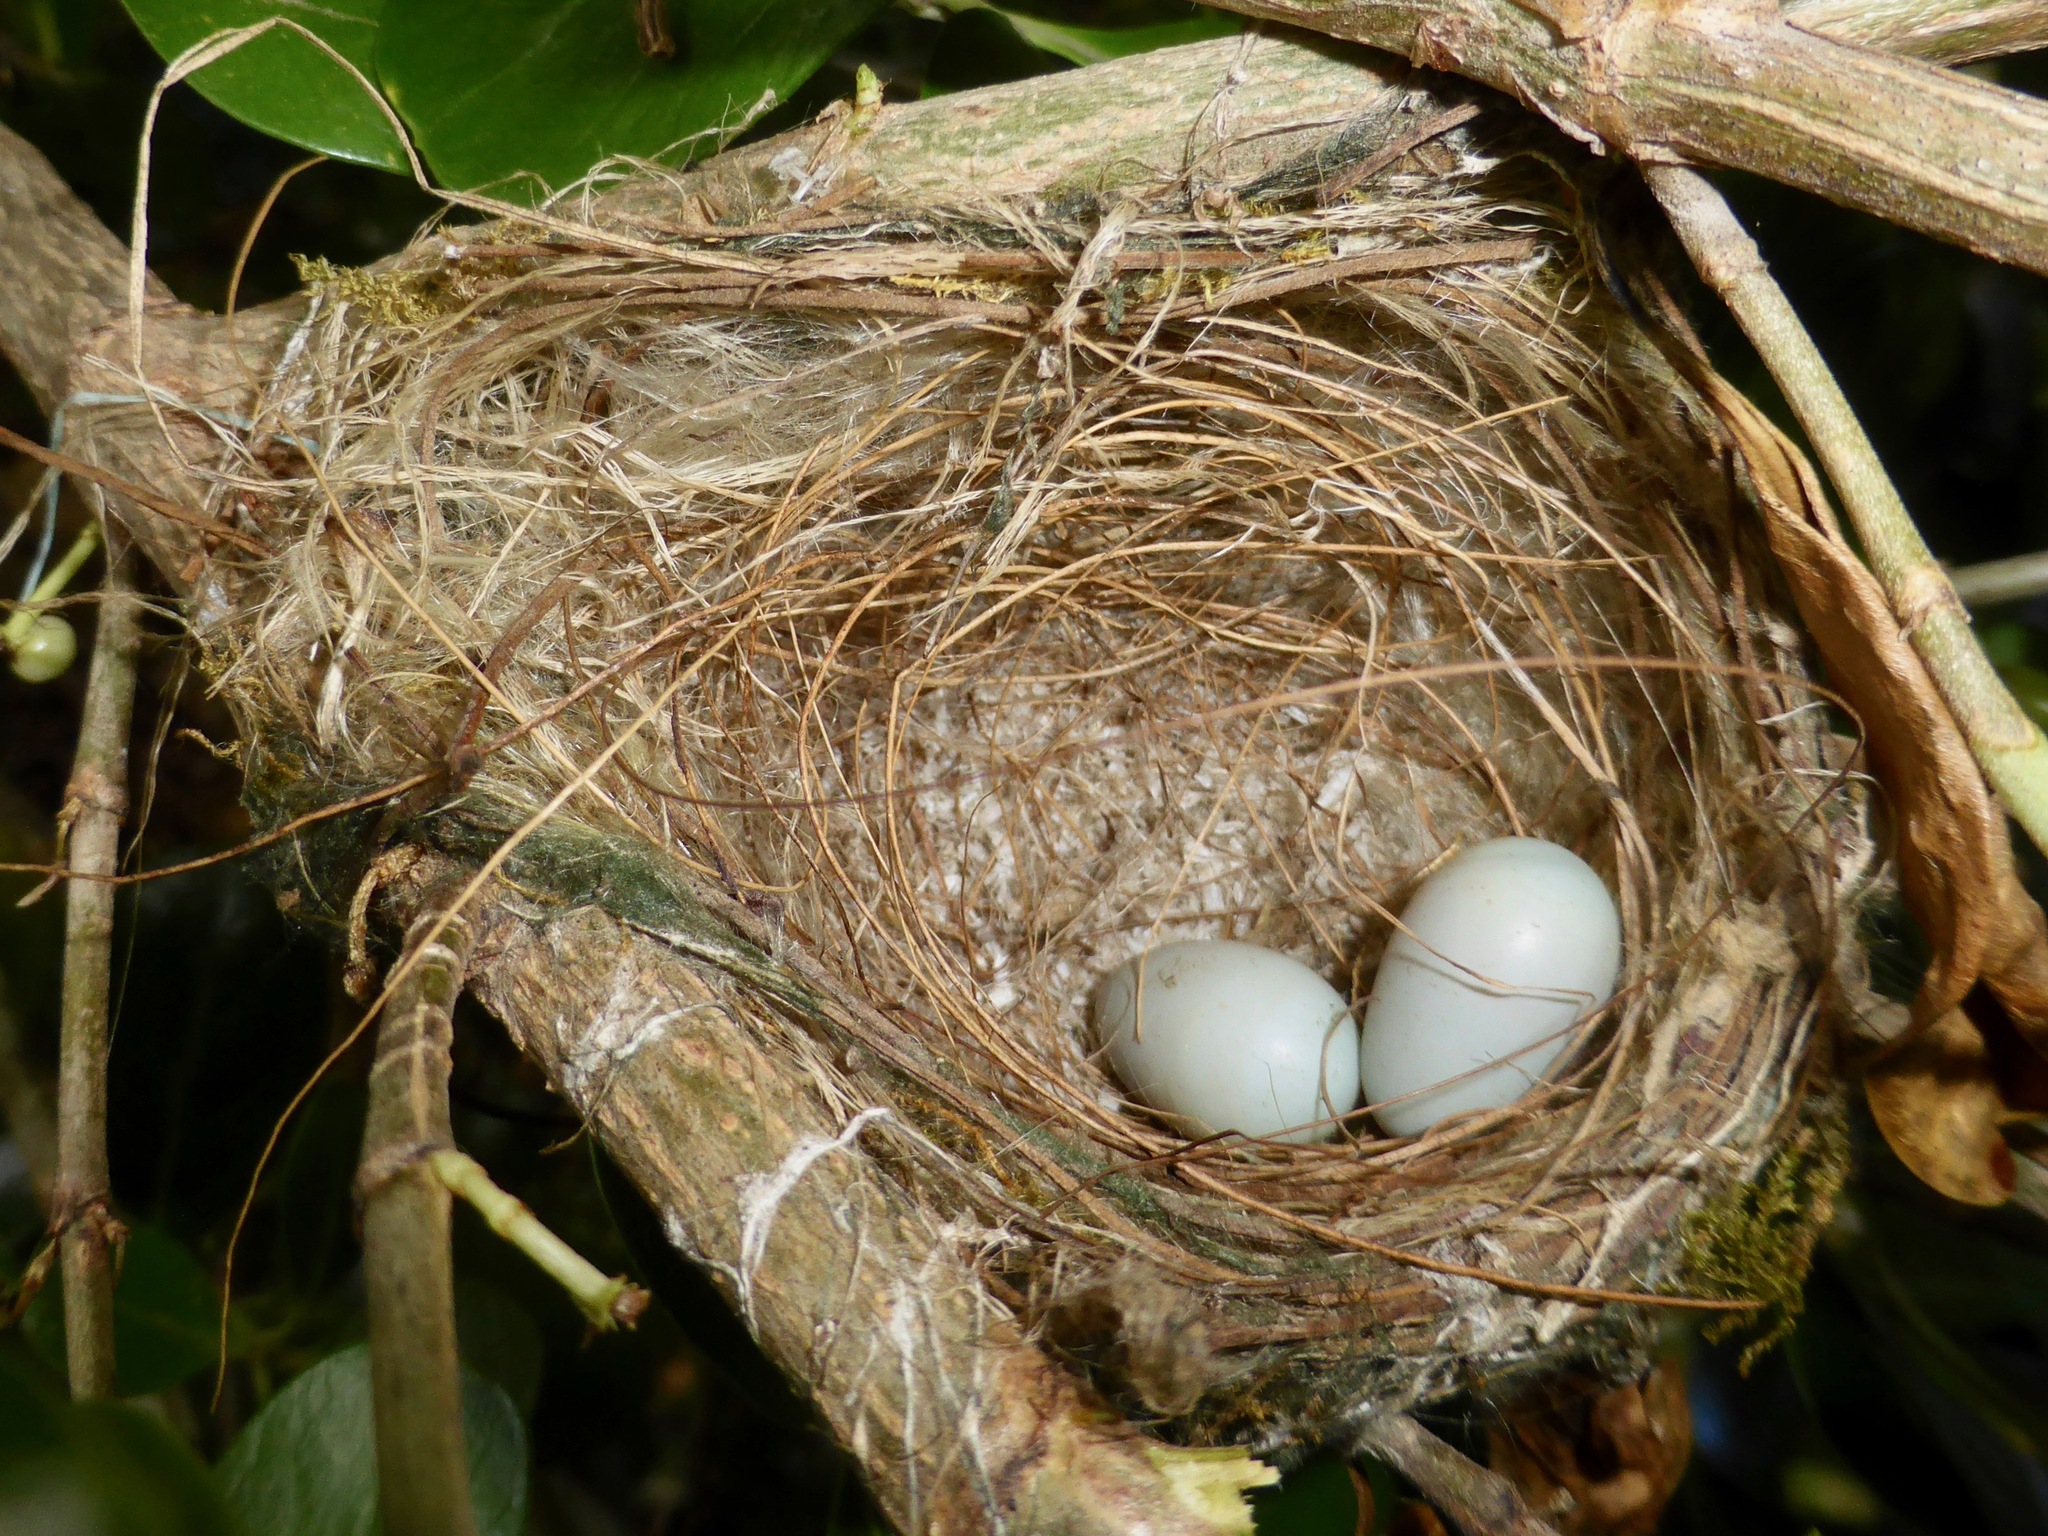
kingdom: Animalia
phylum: Chordata
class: Aves
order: Passeriformes
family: Zosteropidae
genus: Zosterops
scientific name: Zosterops lateralis
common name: Silvereye
